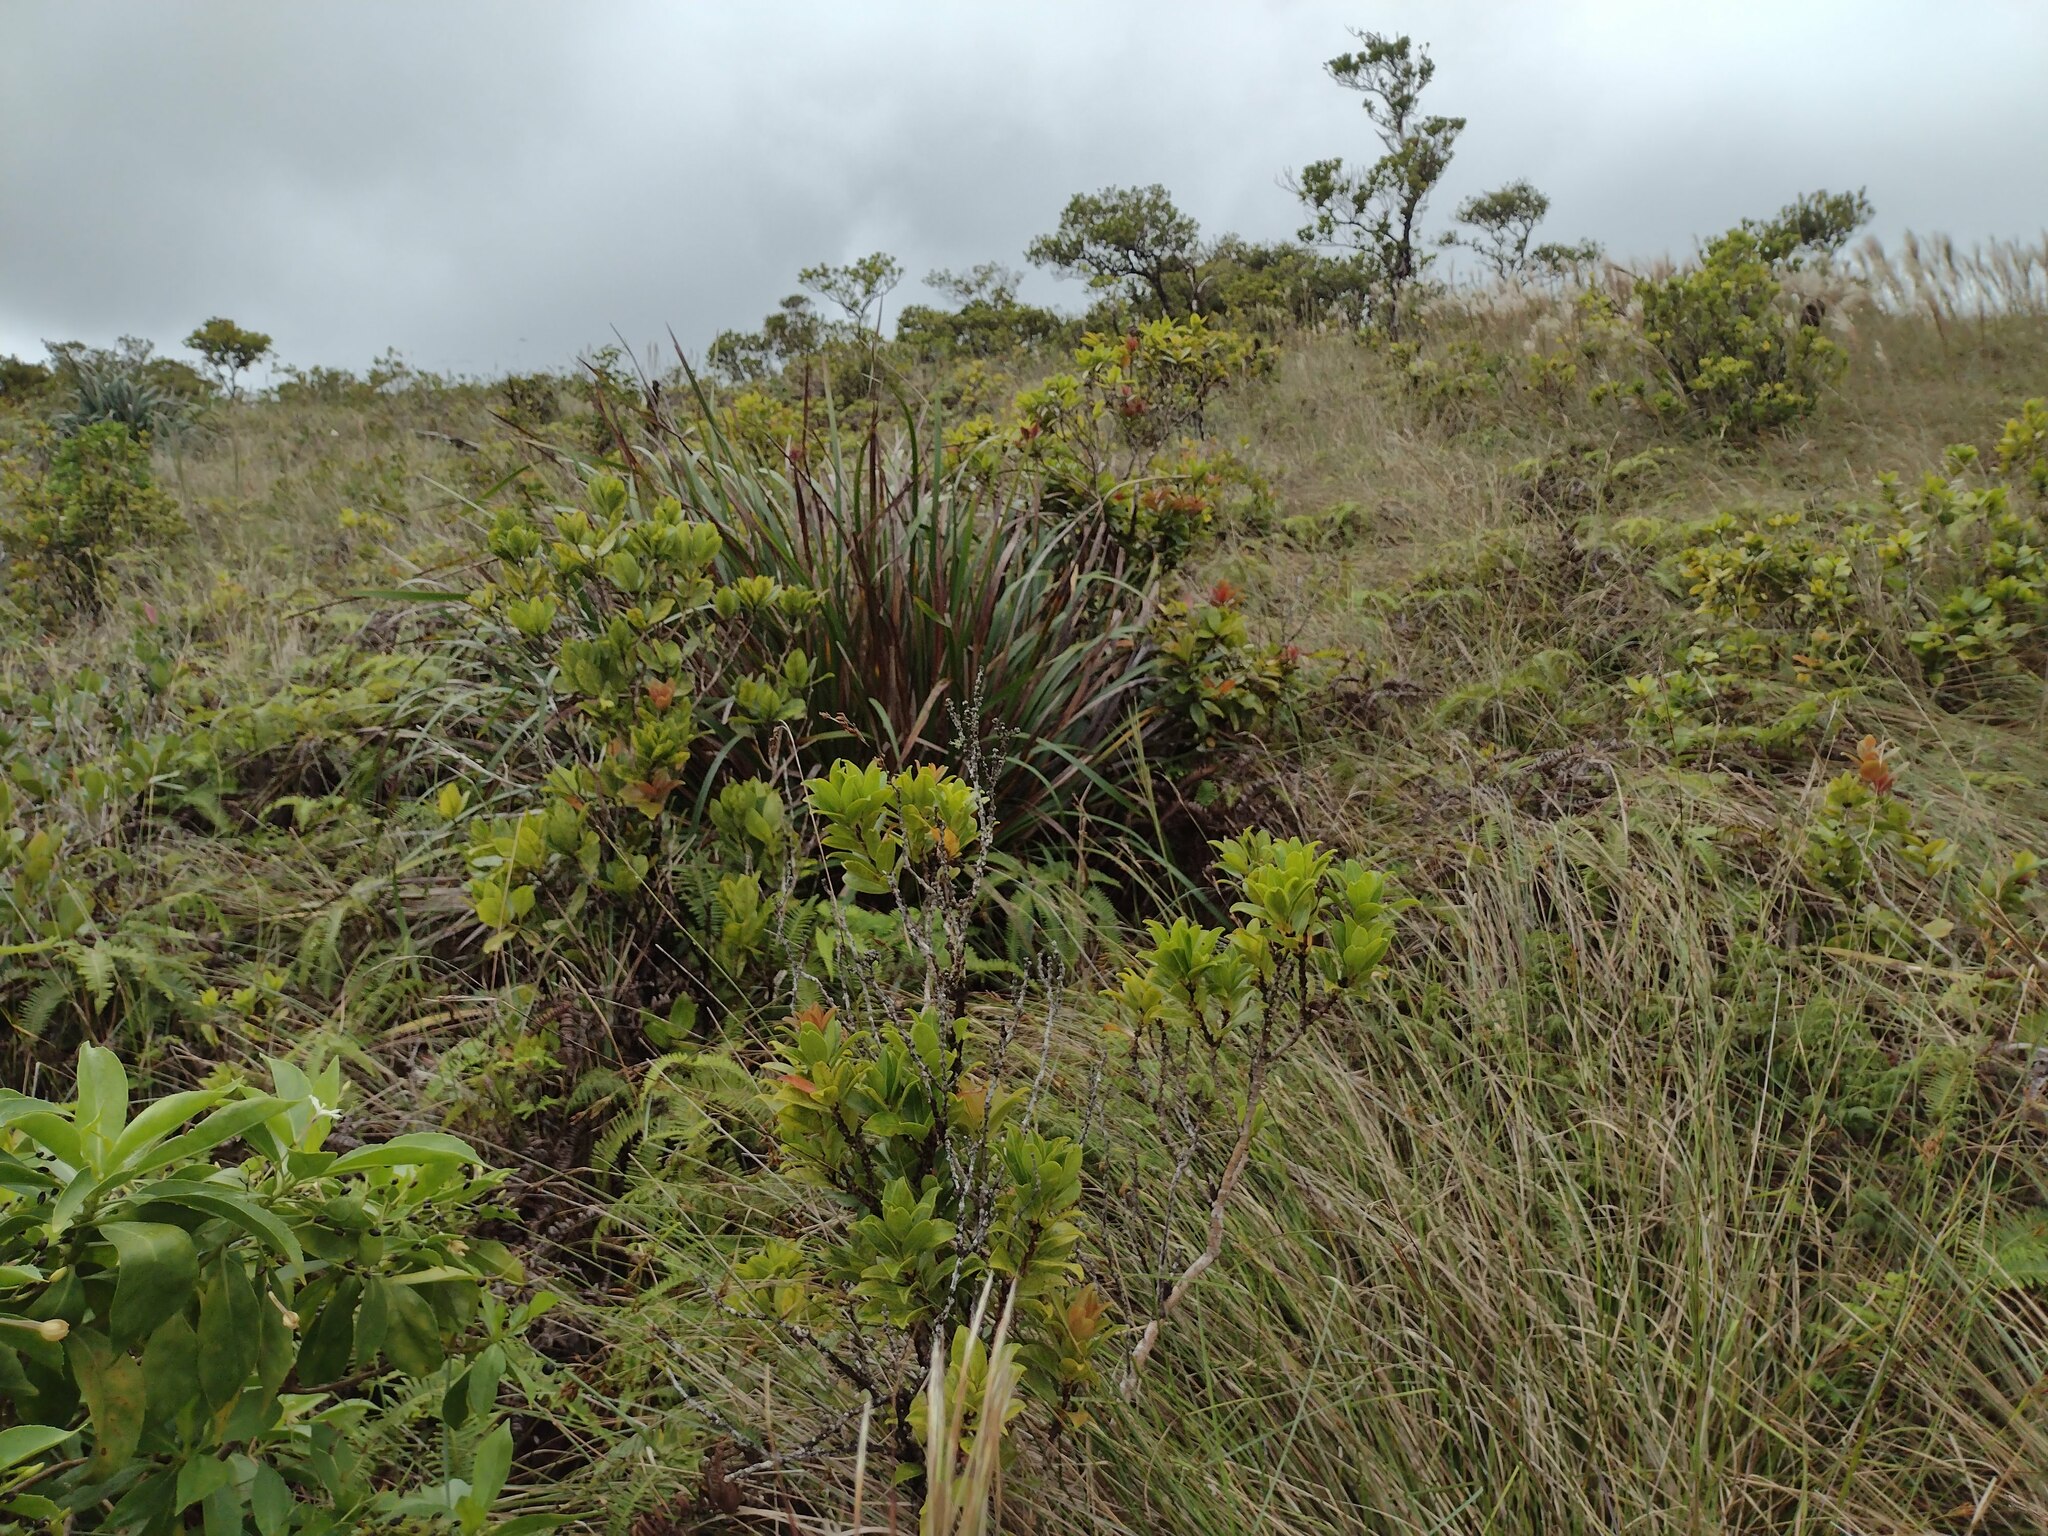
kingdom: Plantae
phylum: Tracheophyta
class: Liliopsida
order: Poales
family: Cyperaceae
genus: Machaerina
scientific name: Machaerina angustifolia
